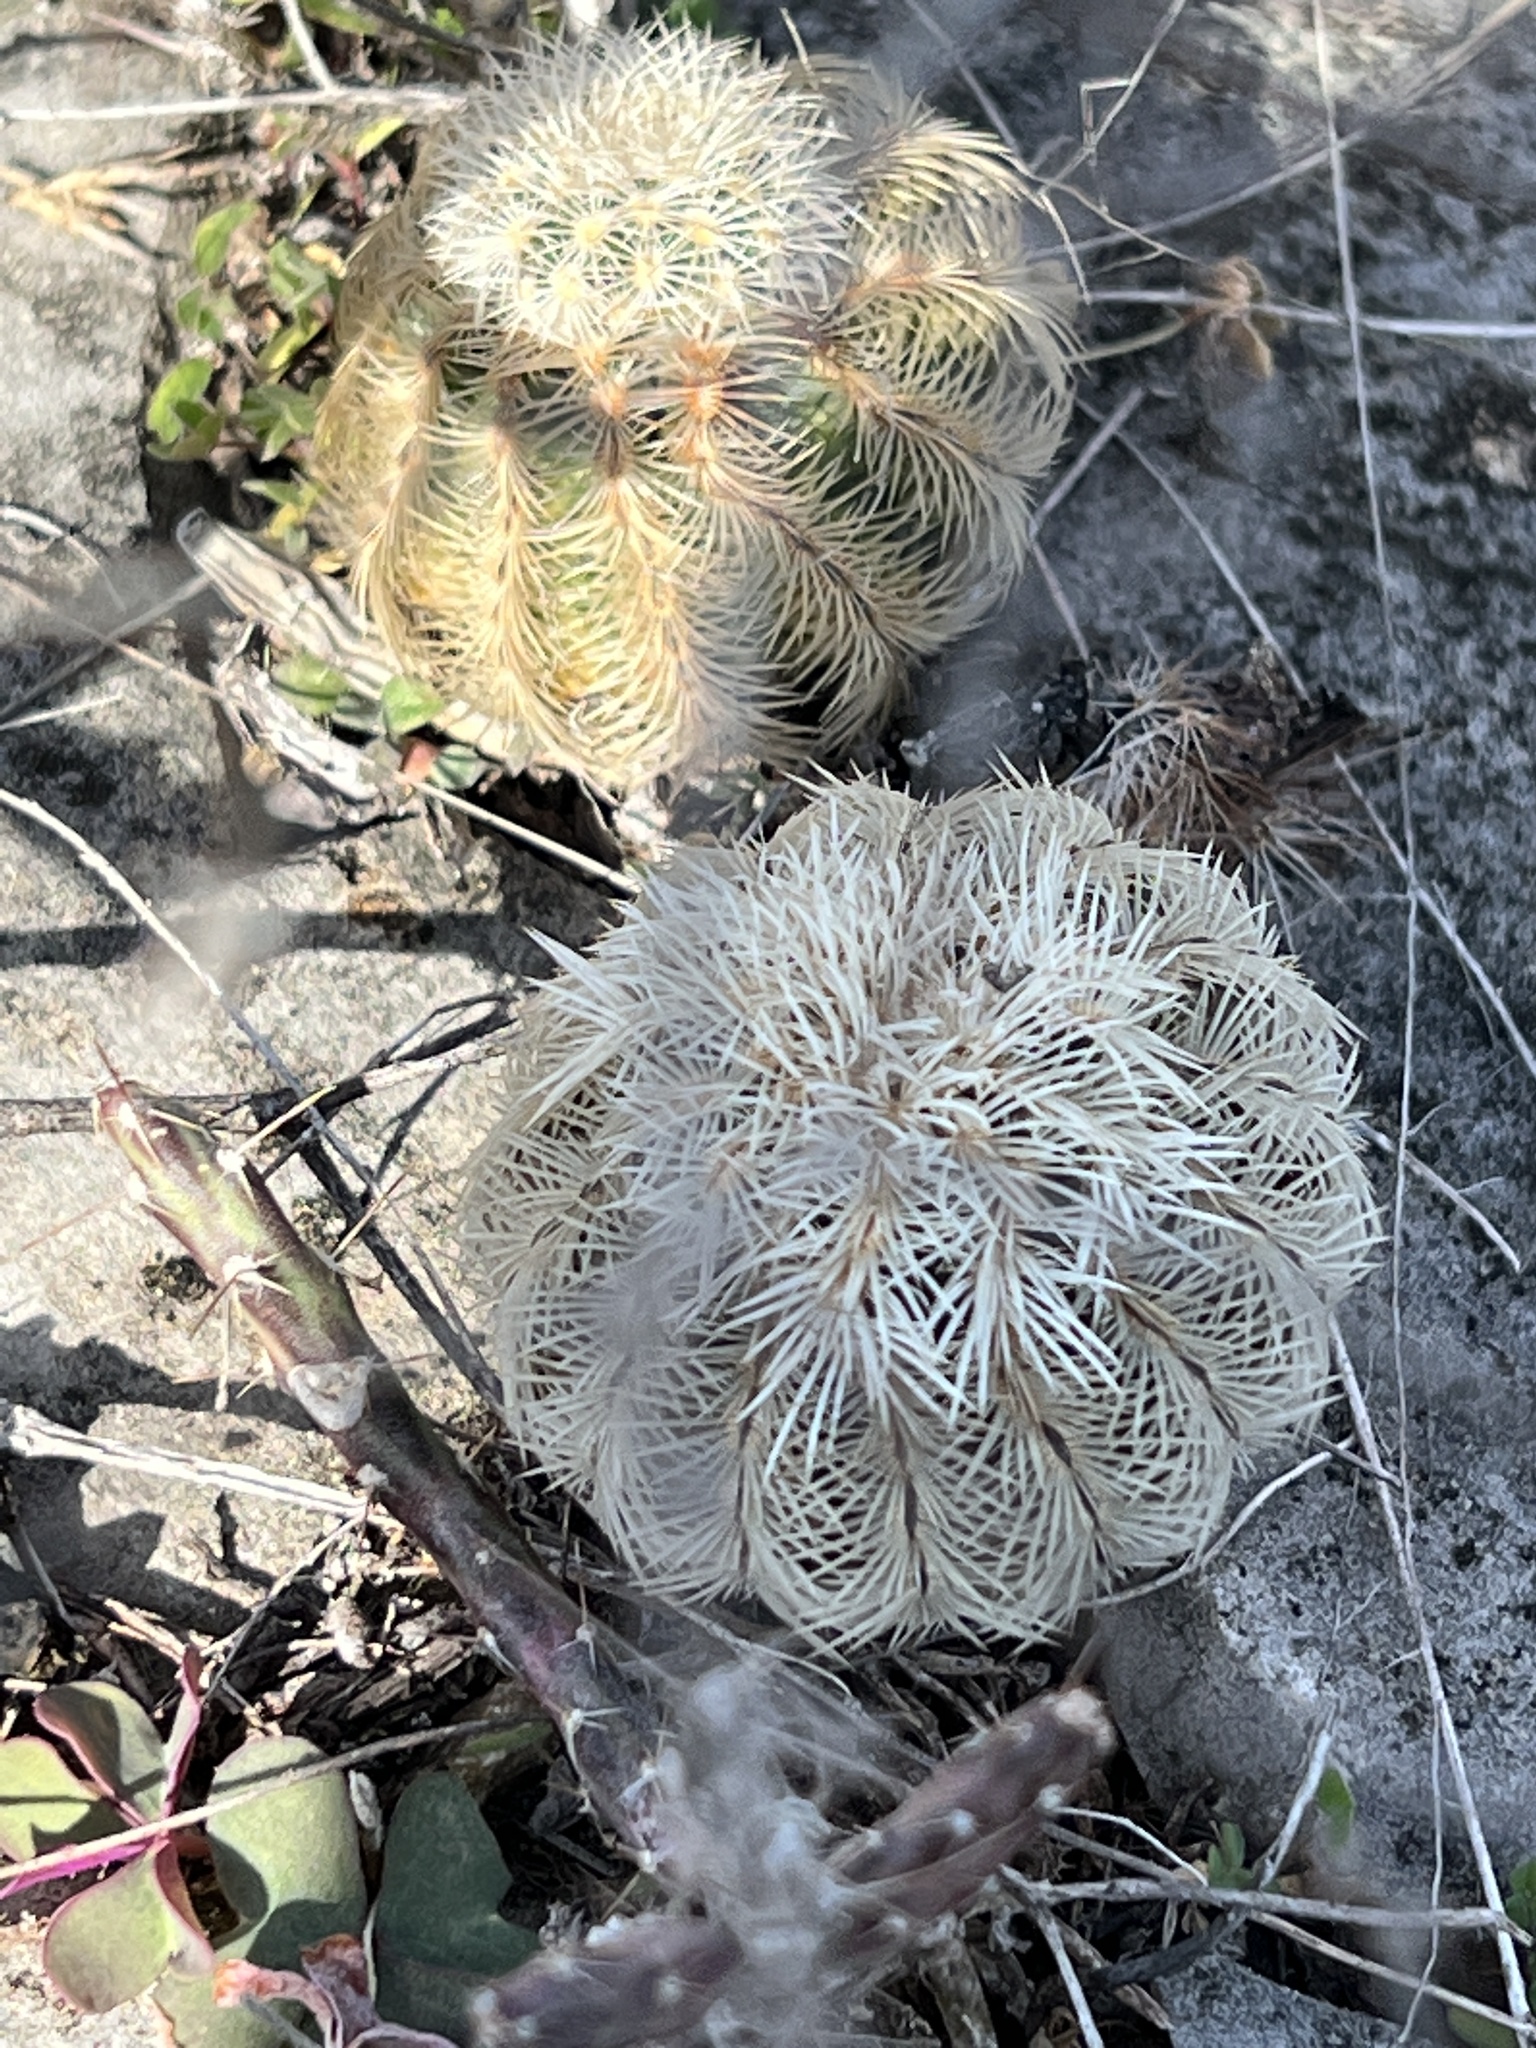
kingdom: Plantae
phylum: Tracheophyta
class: Magnoliopsida
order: Caryophyllales
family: Cactaceae
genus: Echinocereus
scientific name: Echinocereus reichenbachii
